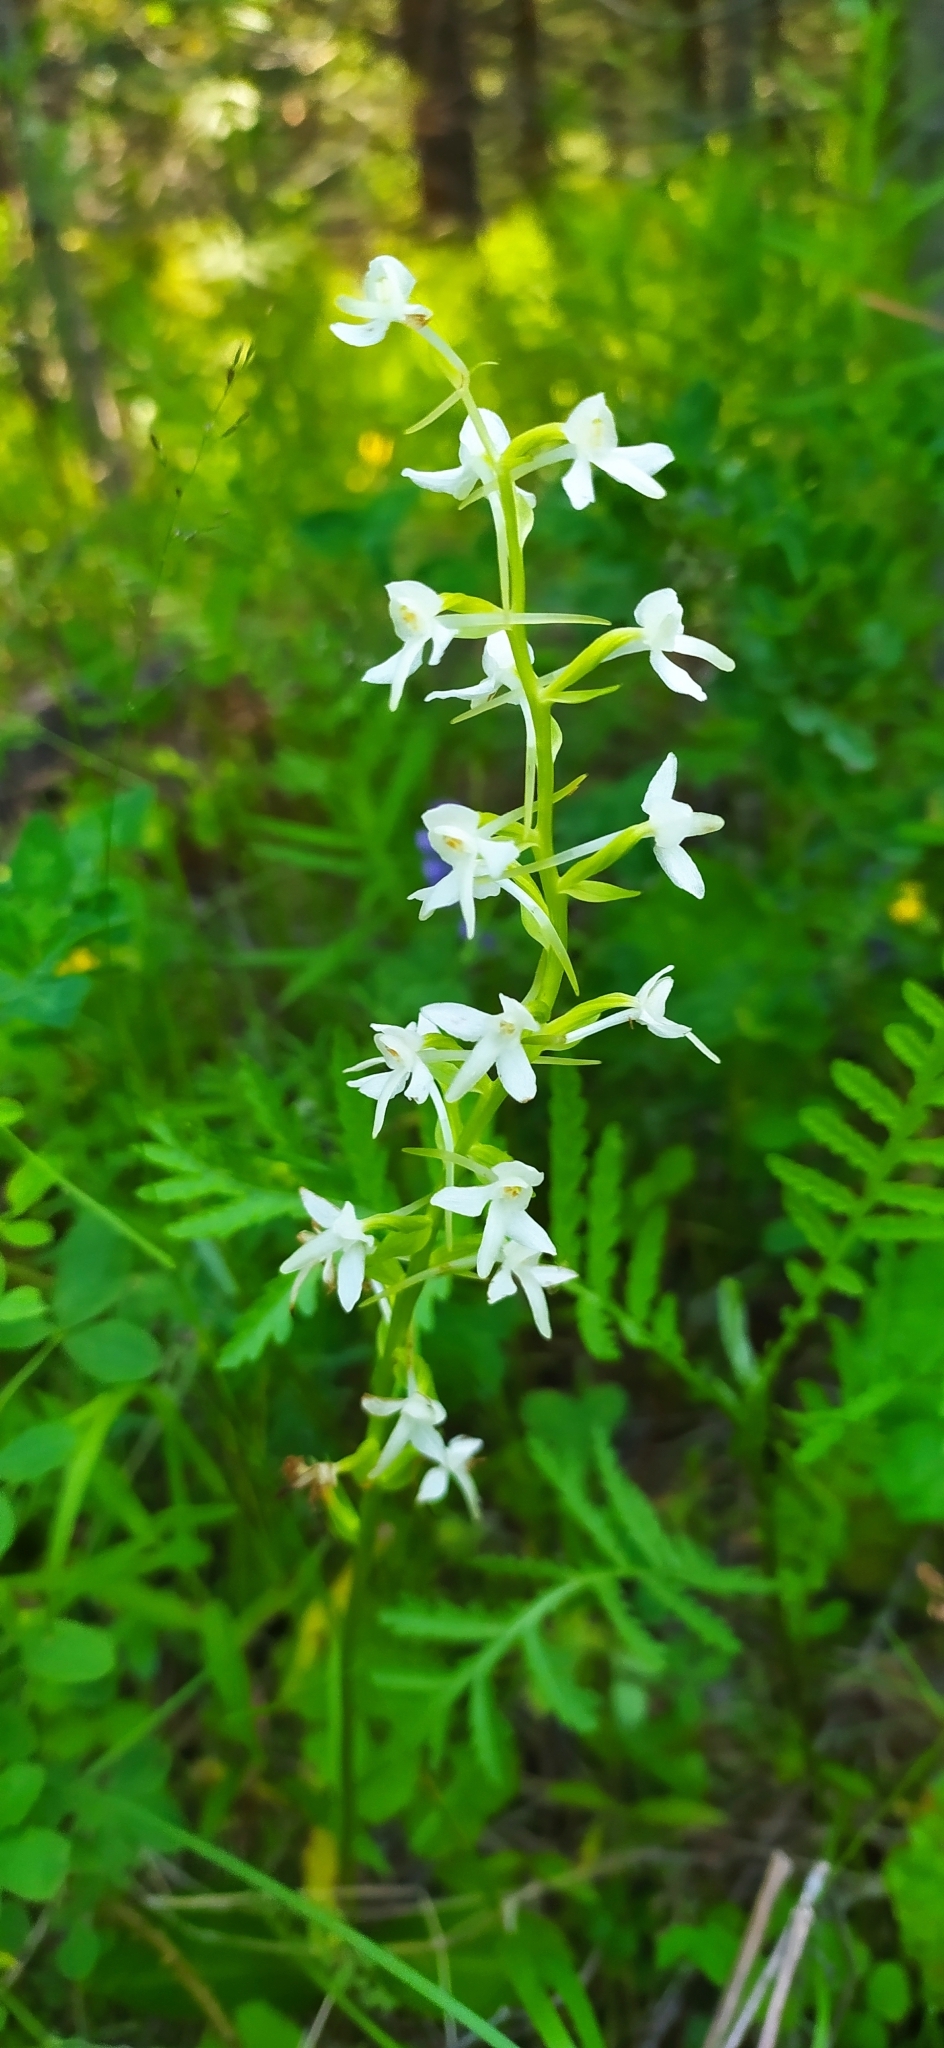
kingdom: Plantae
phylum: Tracheophyta
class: Liliopsida
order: Asparagales
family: Orchidaceae
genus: Platanthera
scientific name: Platanthera bifolia
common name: Lesser butterfly-orchid
